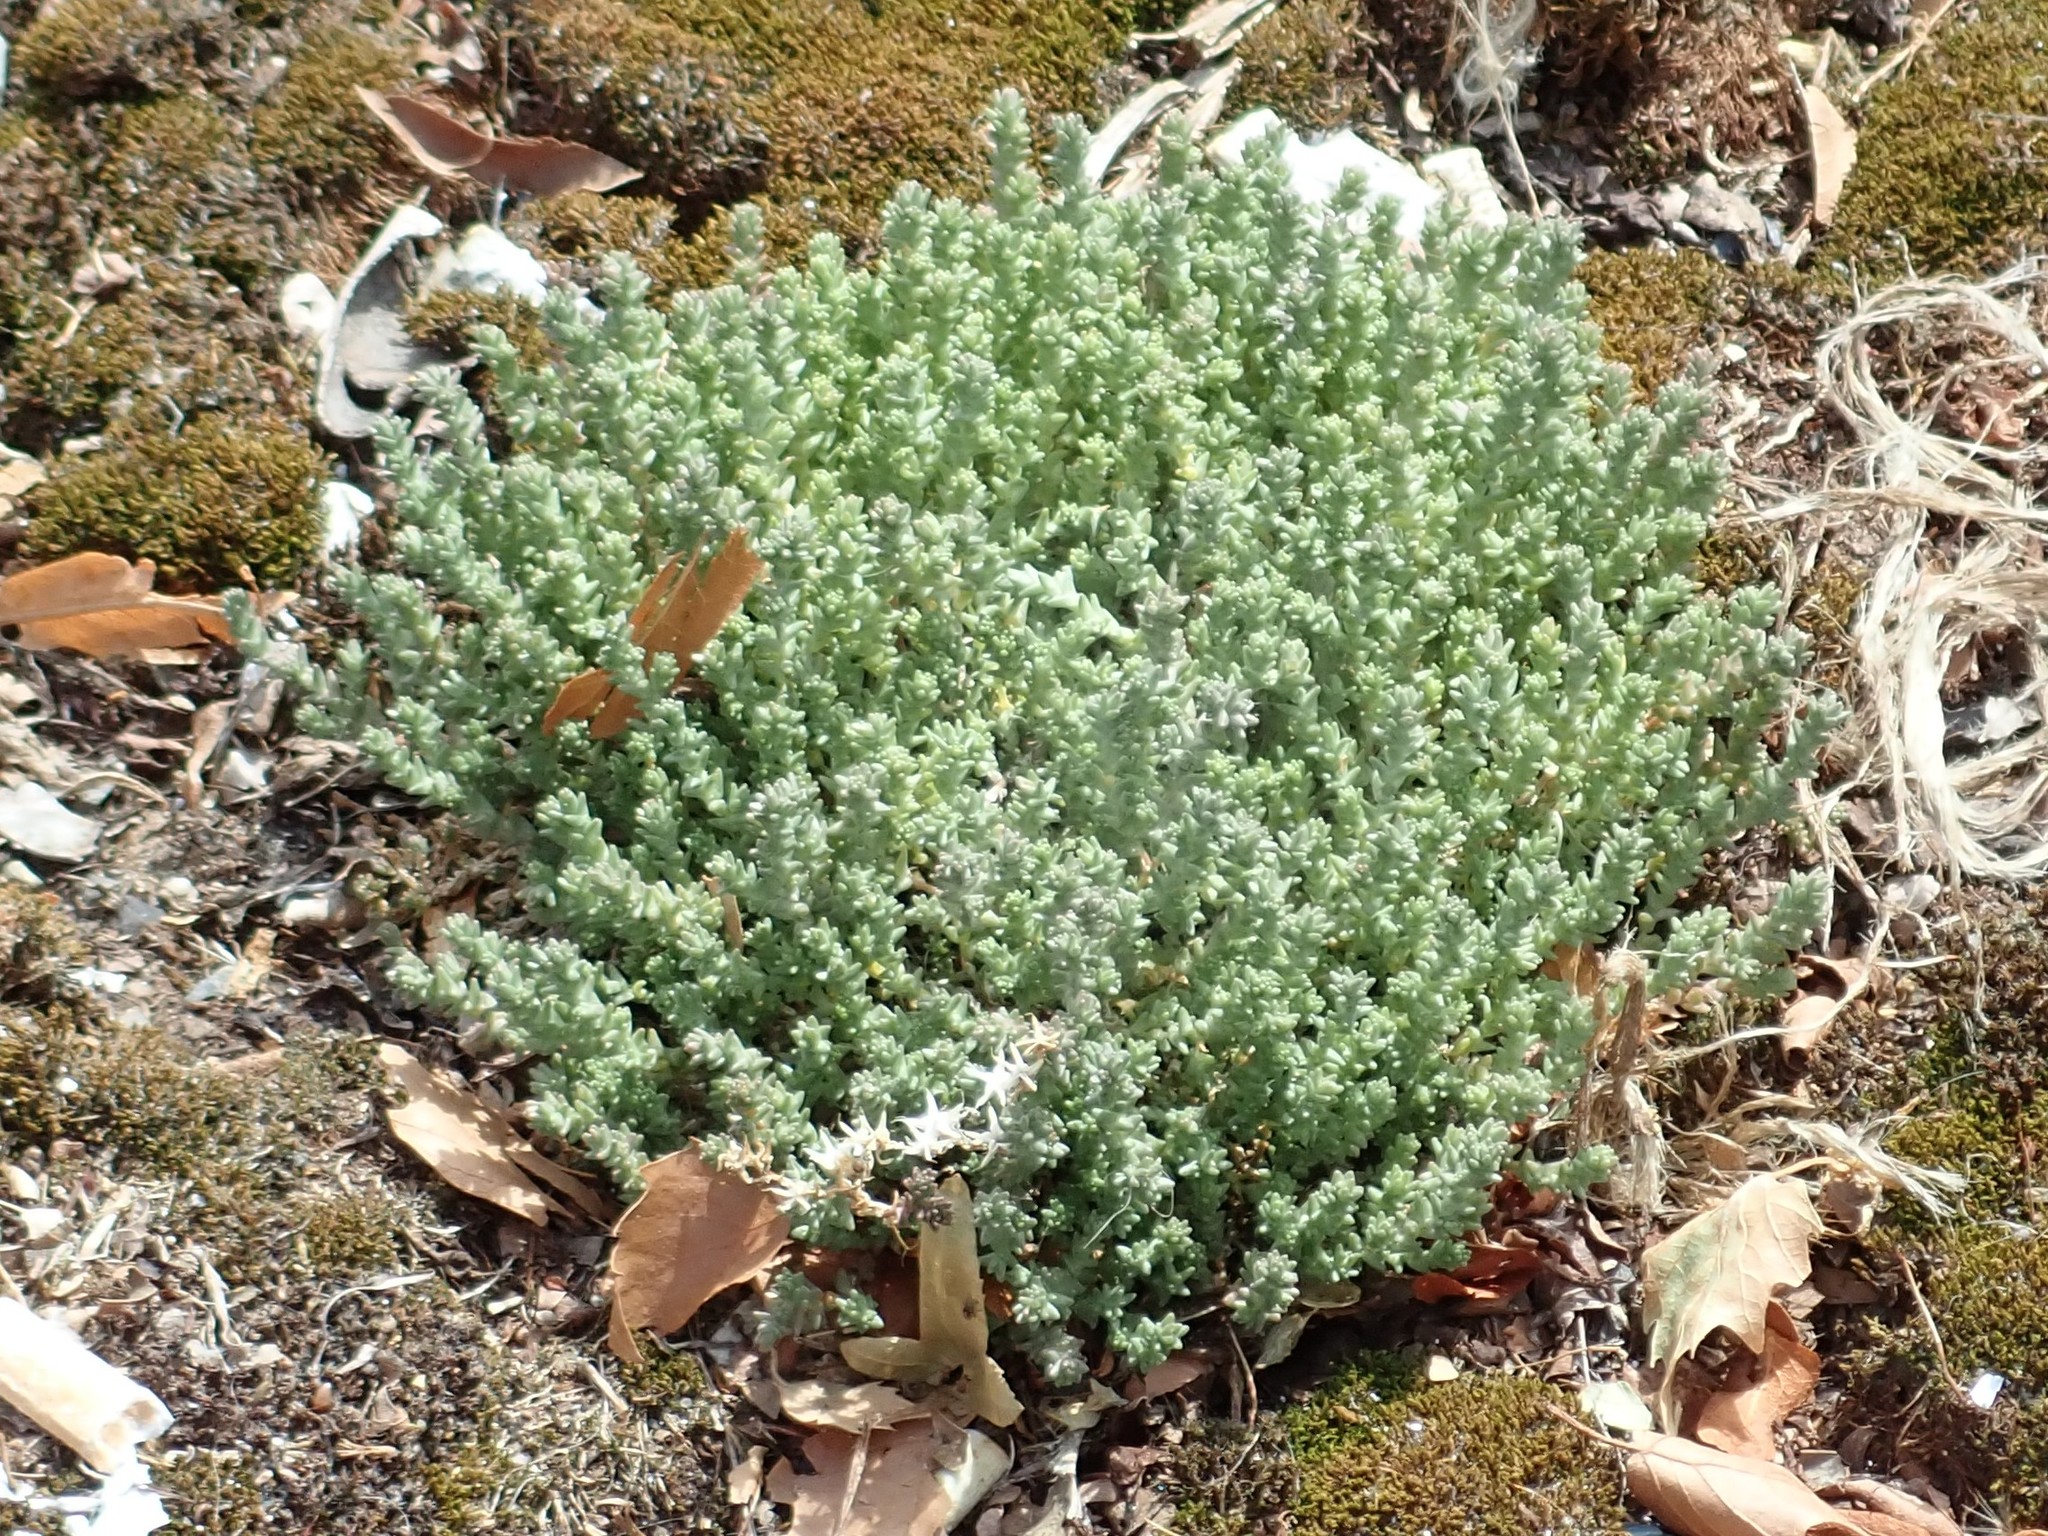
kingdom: Plantae
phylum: Tracheophyta
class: Magnoliopsida
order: Saxifragales
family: Crassulaceae
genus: Sedum
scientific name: Sedum acre
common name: Biting stonecrop
